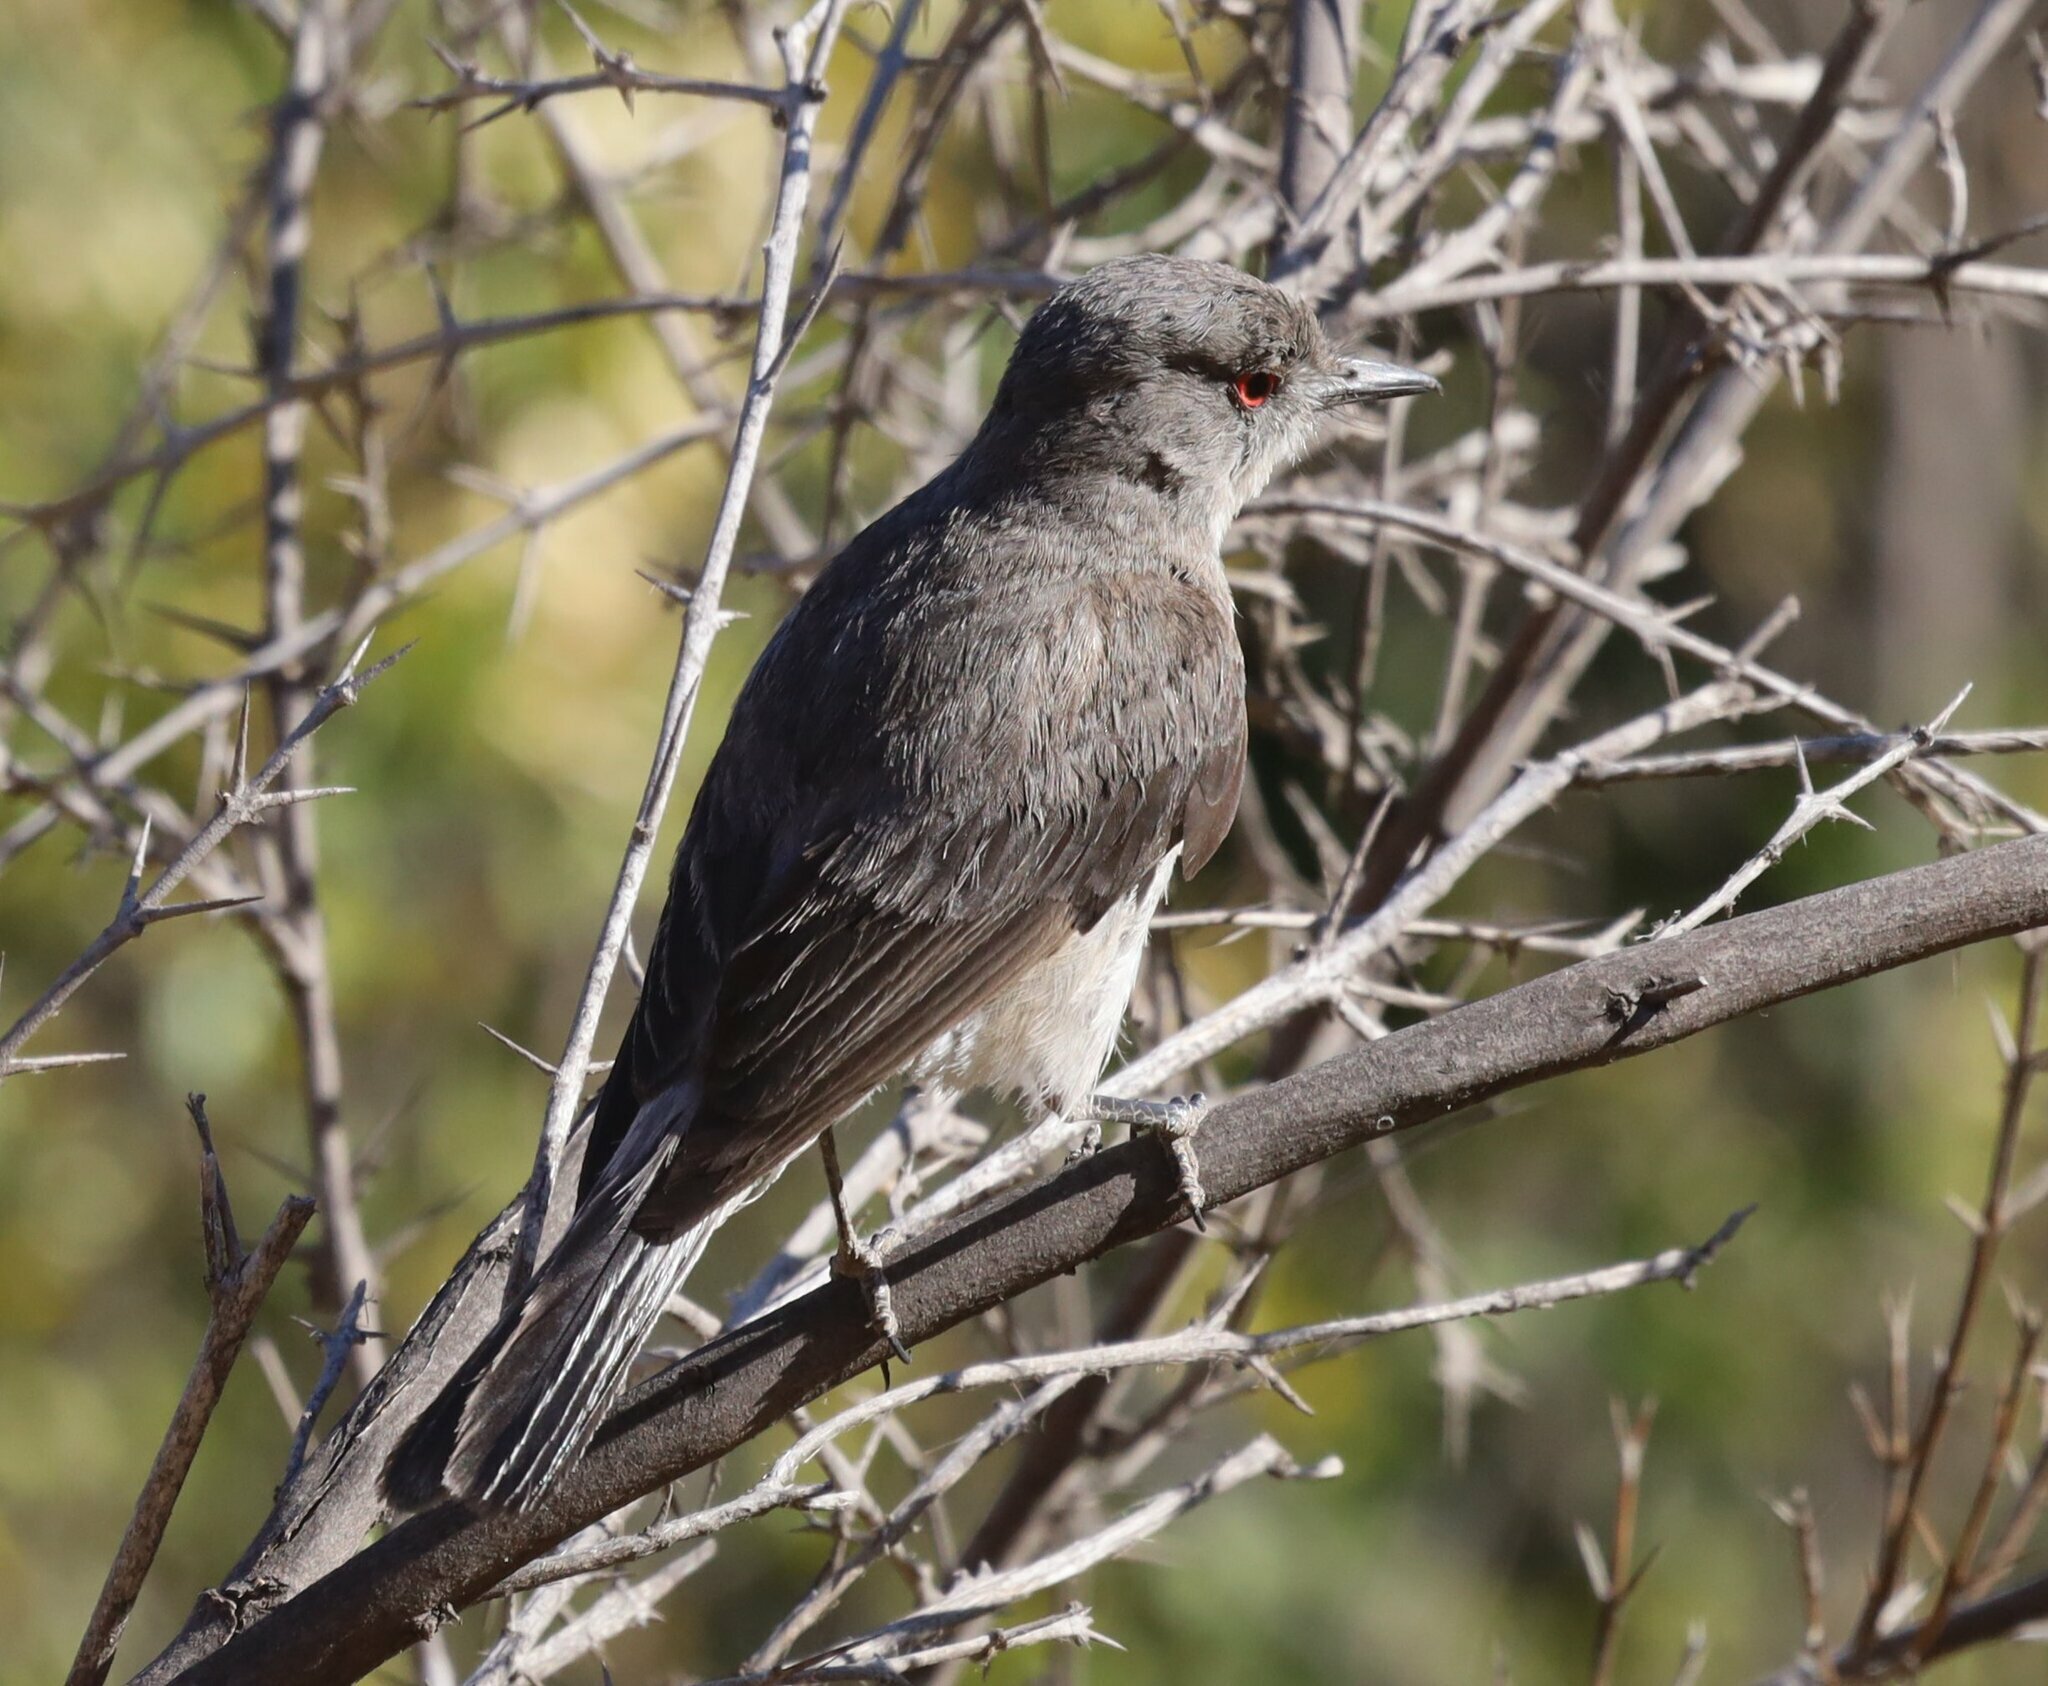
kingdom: Animalia
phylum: Chordata
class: Aves
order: Passeriformes
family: Tyrannidae
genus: Xolmis
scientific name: Xolmis pyrope
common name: Fire-eyed diucon
